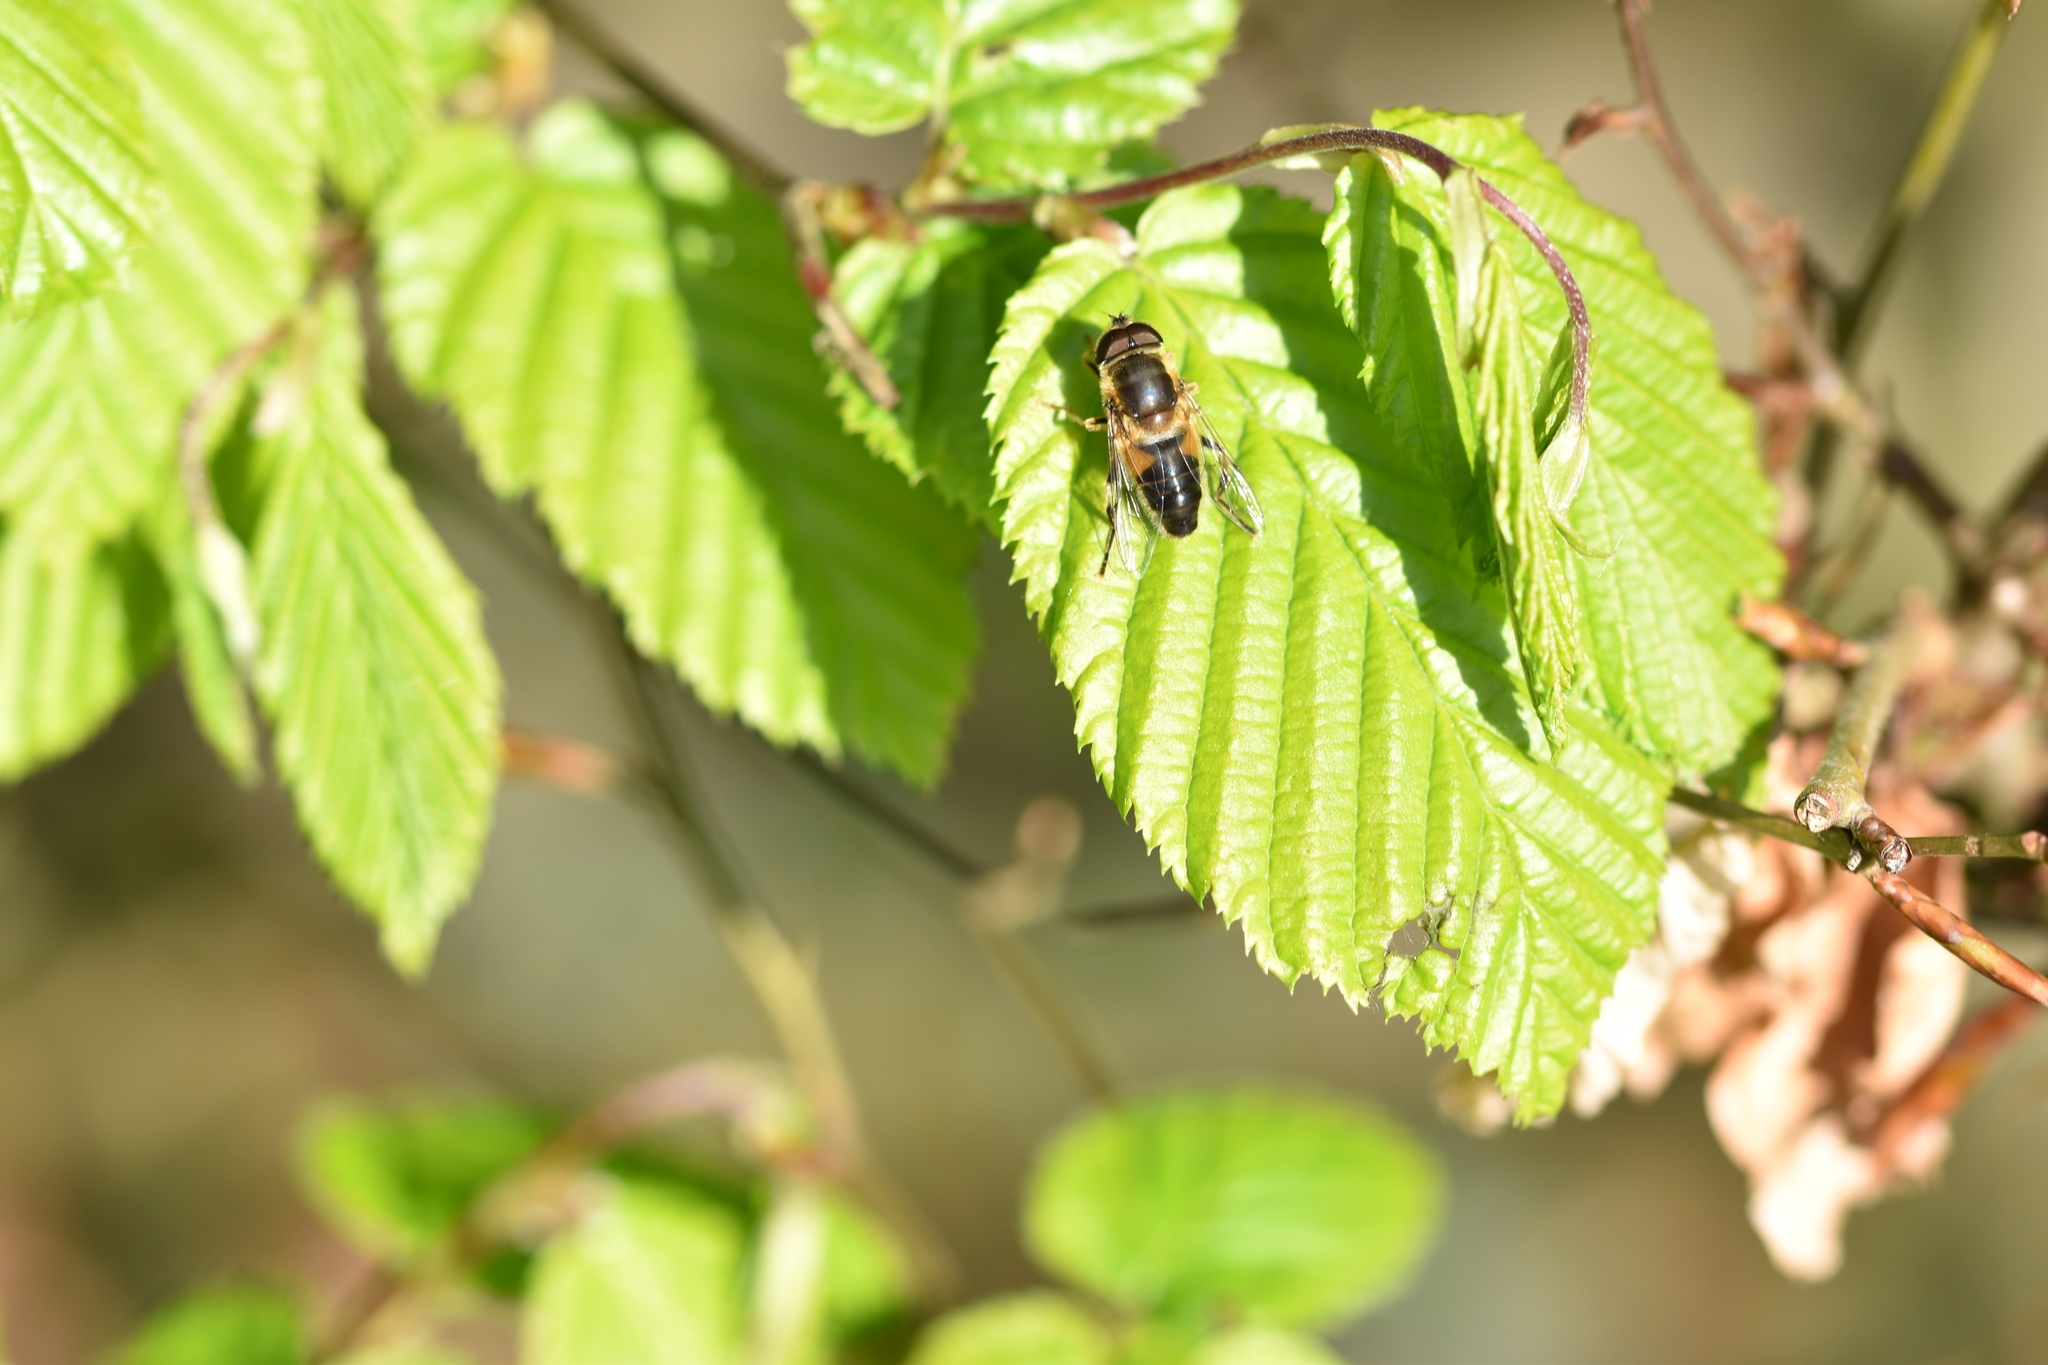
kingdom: Animalia
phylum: Arthropoda
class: Insecta
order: Diptera
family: Syrphidae
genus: Eristalis
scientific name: Eristalis pertinax
